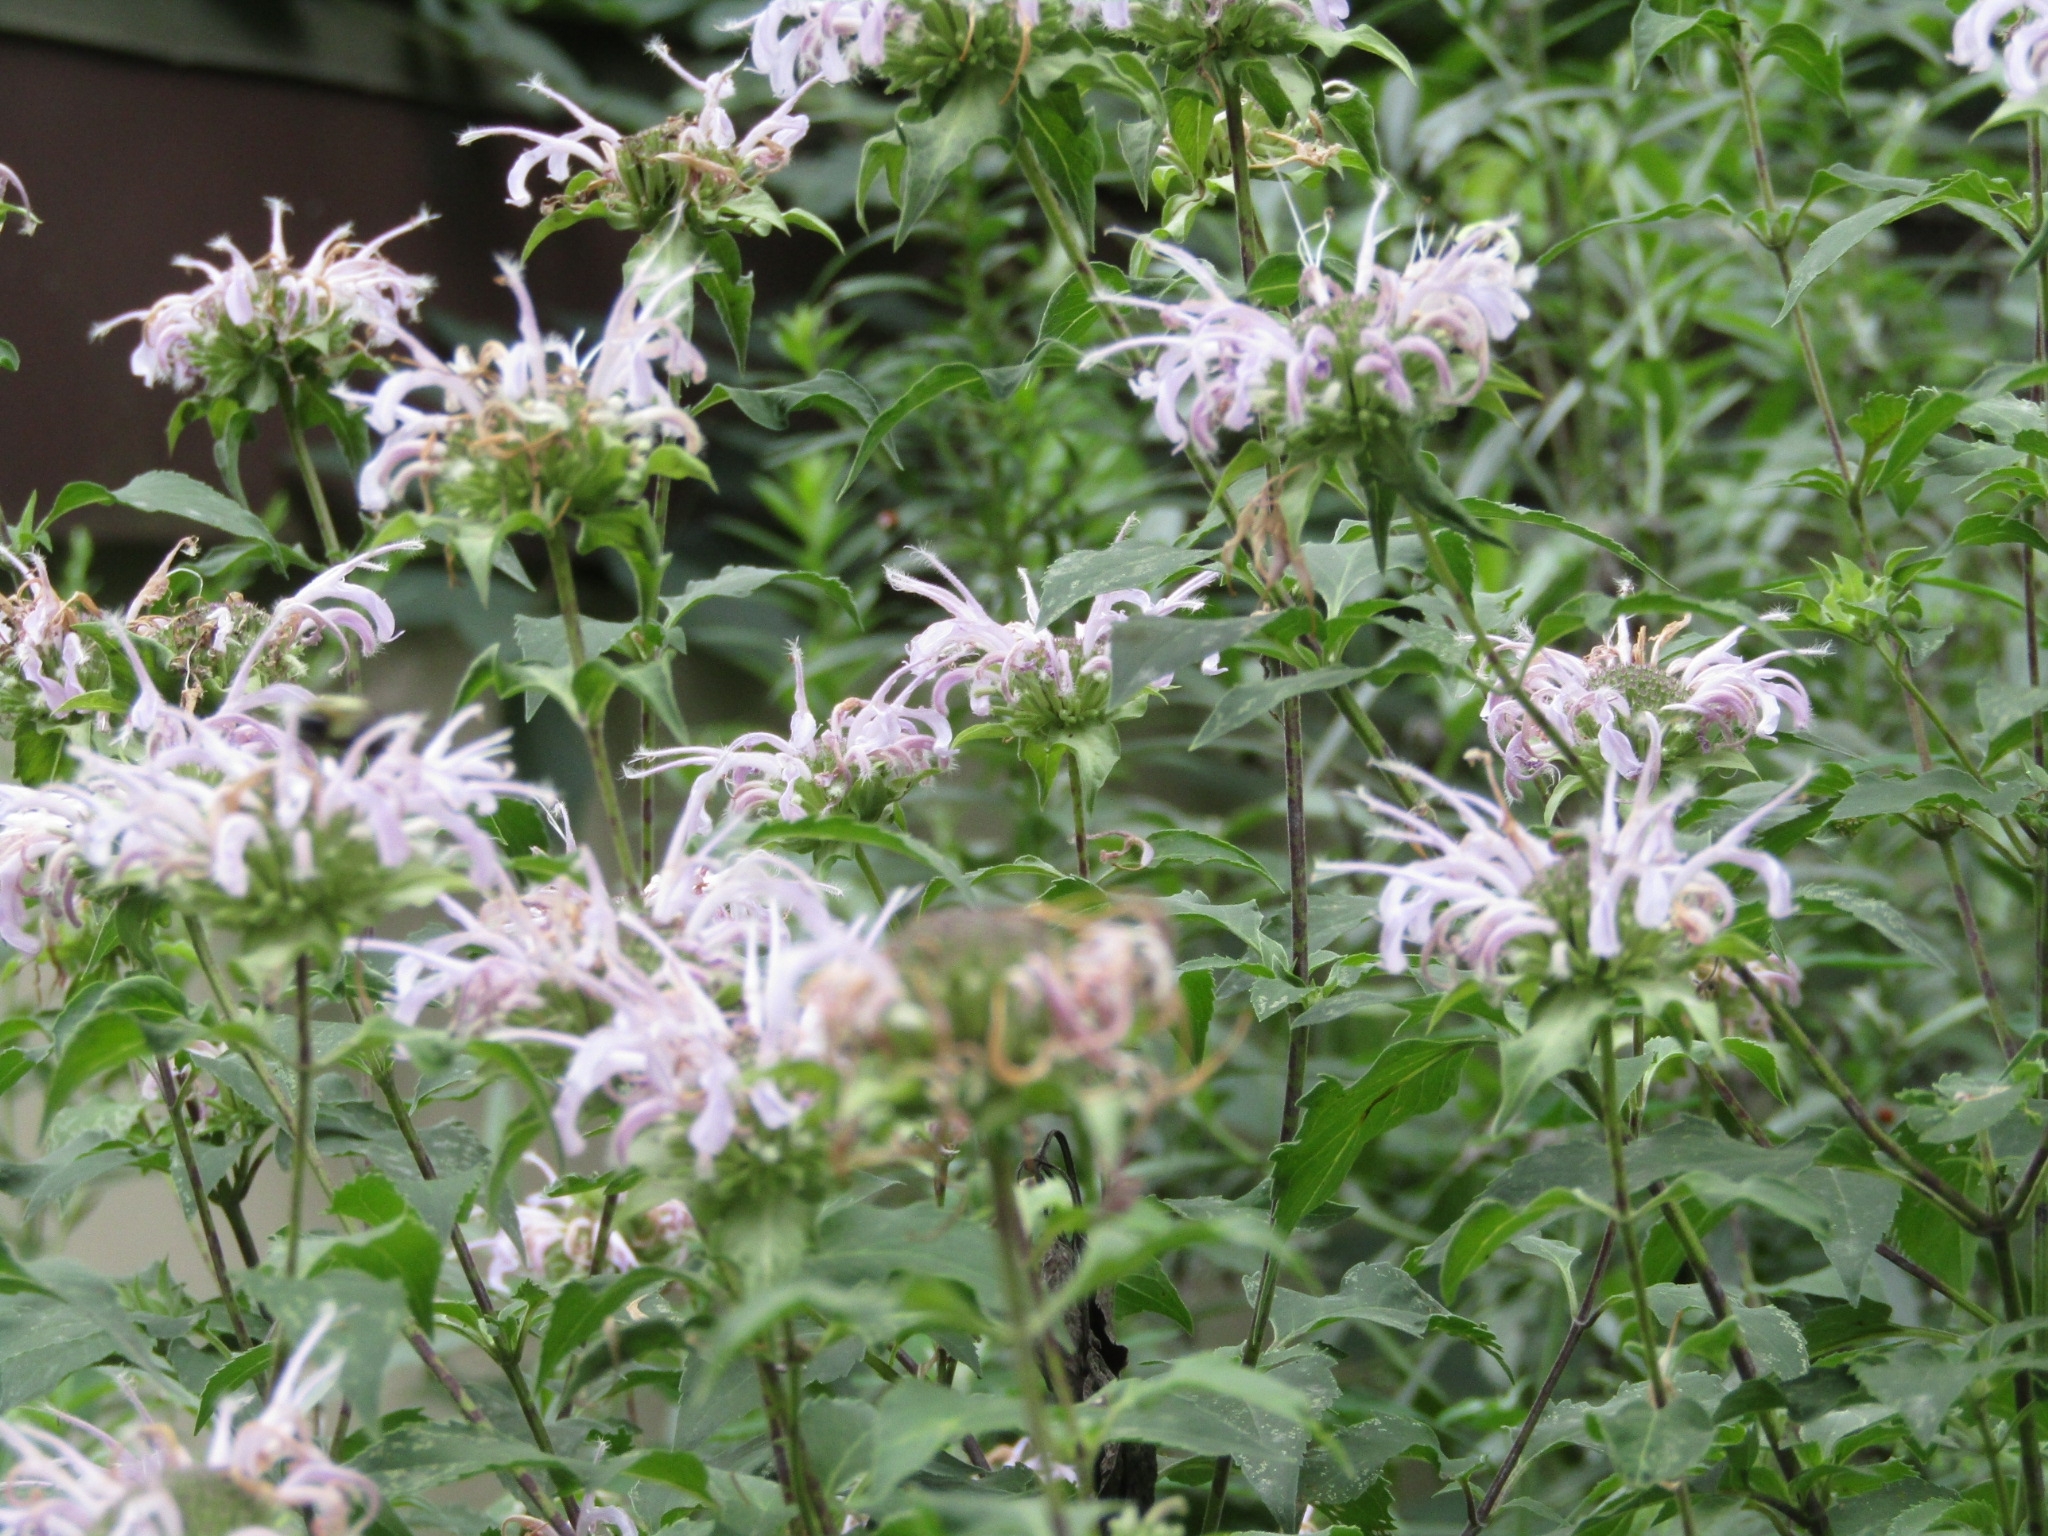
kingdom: Plantae
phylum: Tracheophyta
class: Magnoliopsida
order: Lamiales
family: Lamiaceae
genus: Monarda
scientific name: Monarda fistulosa
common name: Purple beebalm
